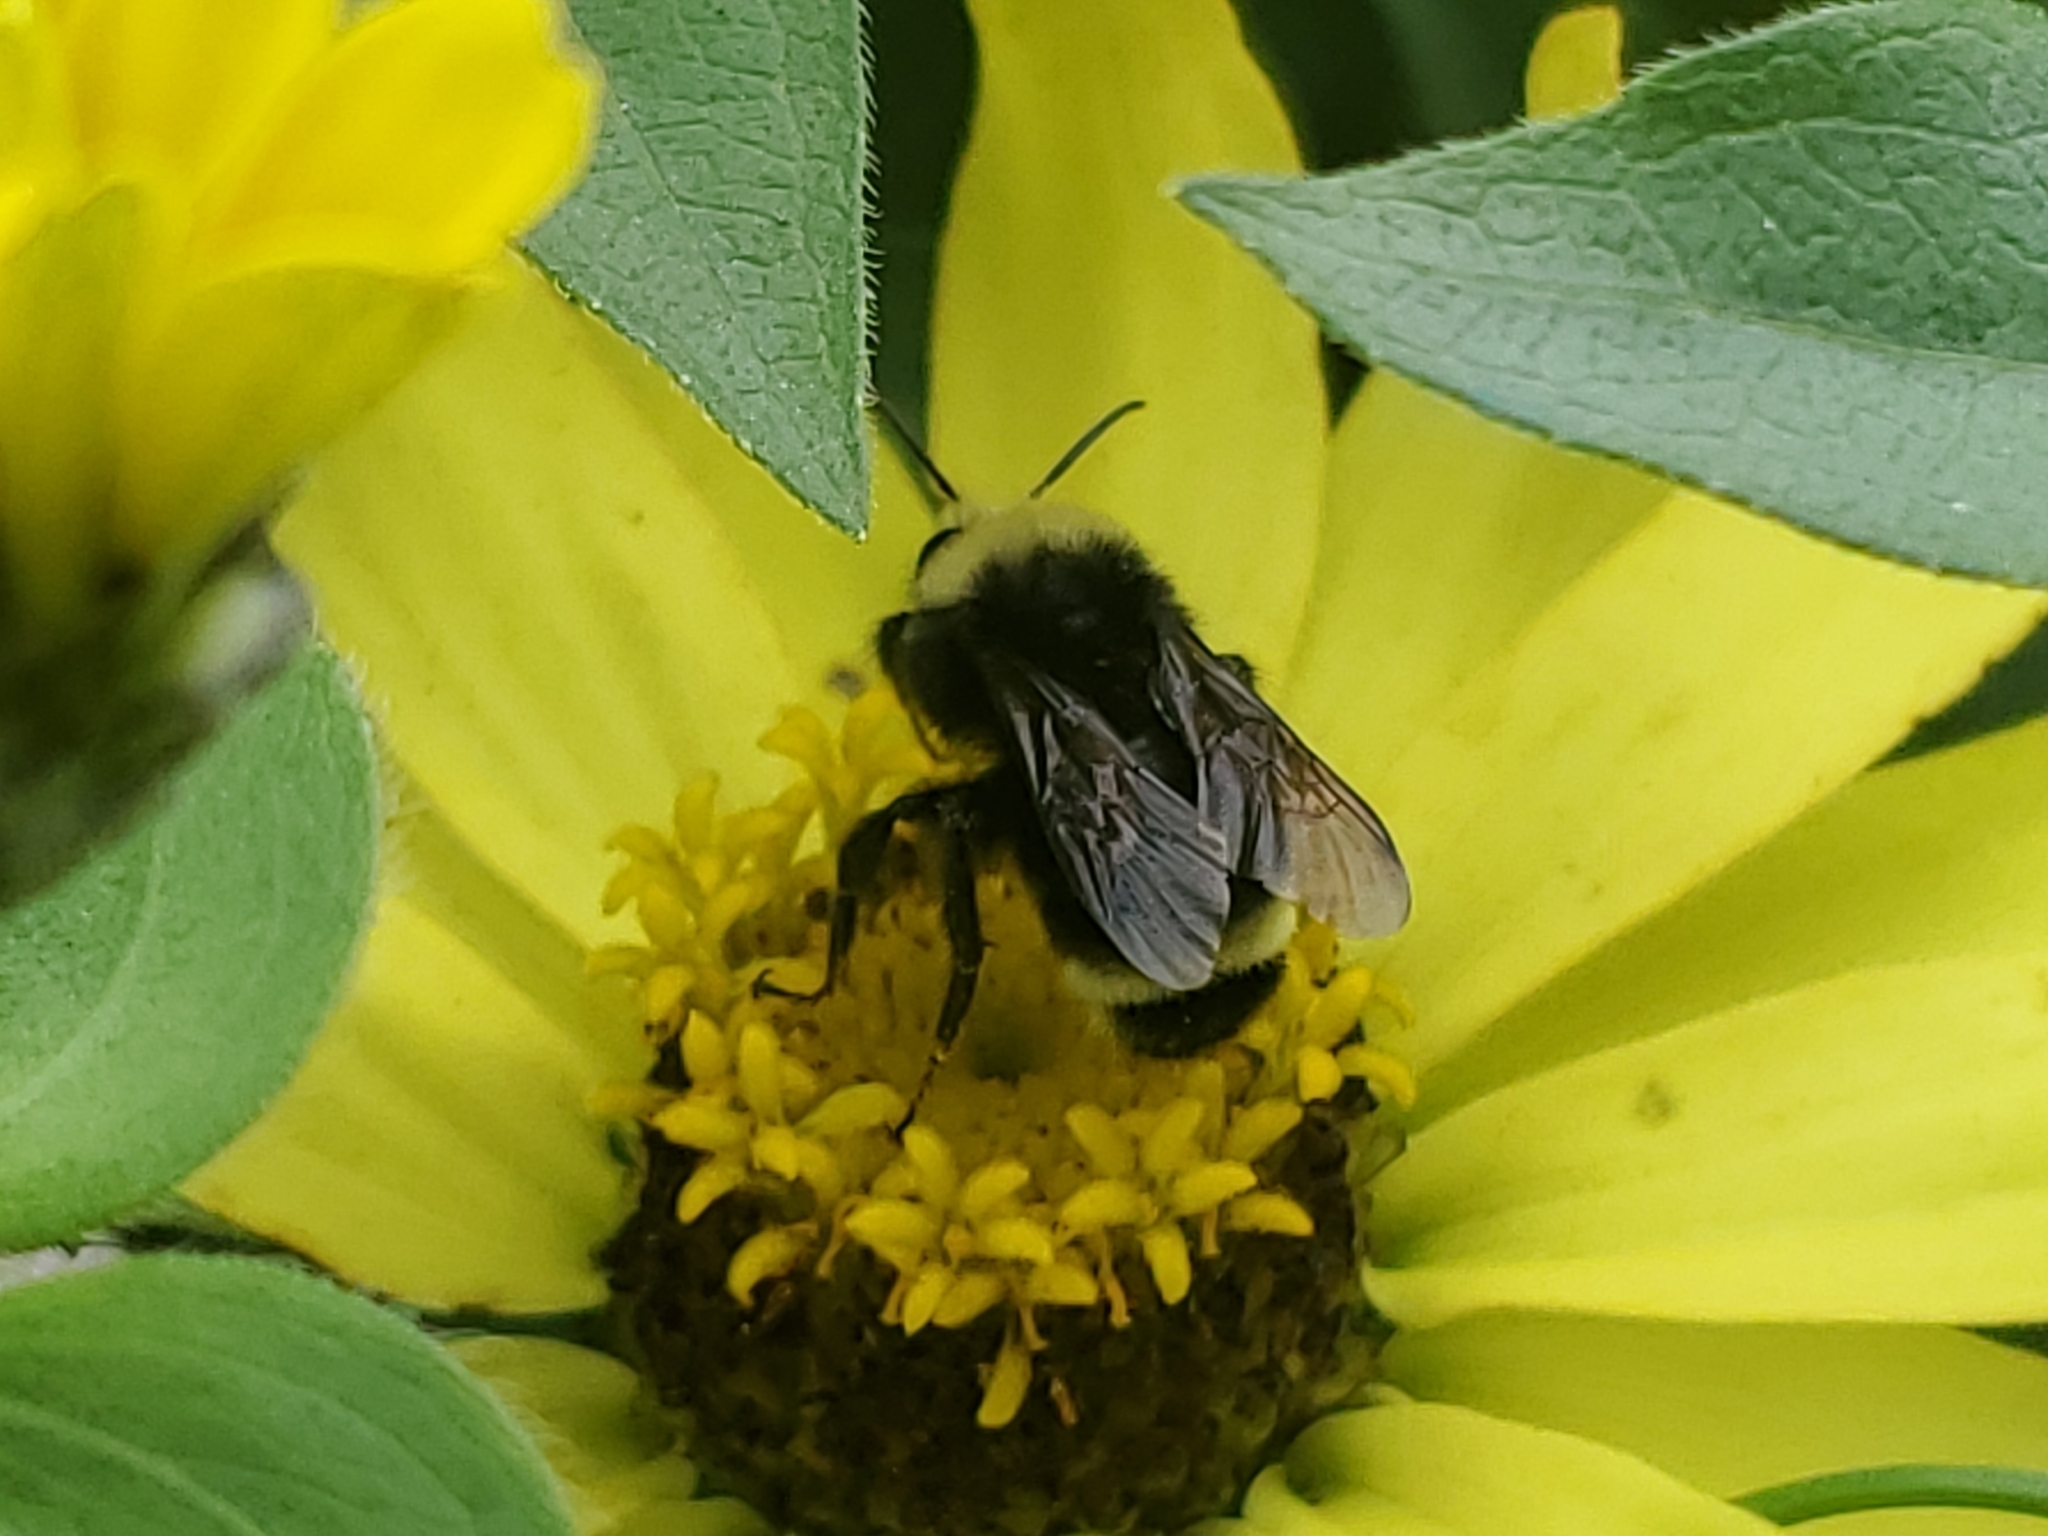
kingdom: Animalia
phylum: Arthropoda
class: Insecta
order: Hymenoptera
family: Apidae
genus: Bombus
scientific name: Bombus vosnesenskii
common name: Vosnesensky bumble bee
